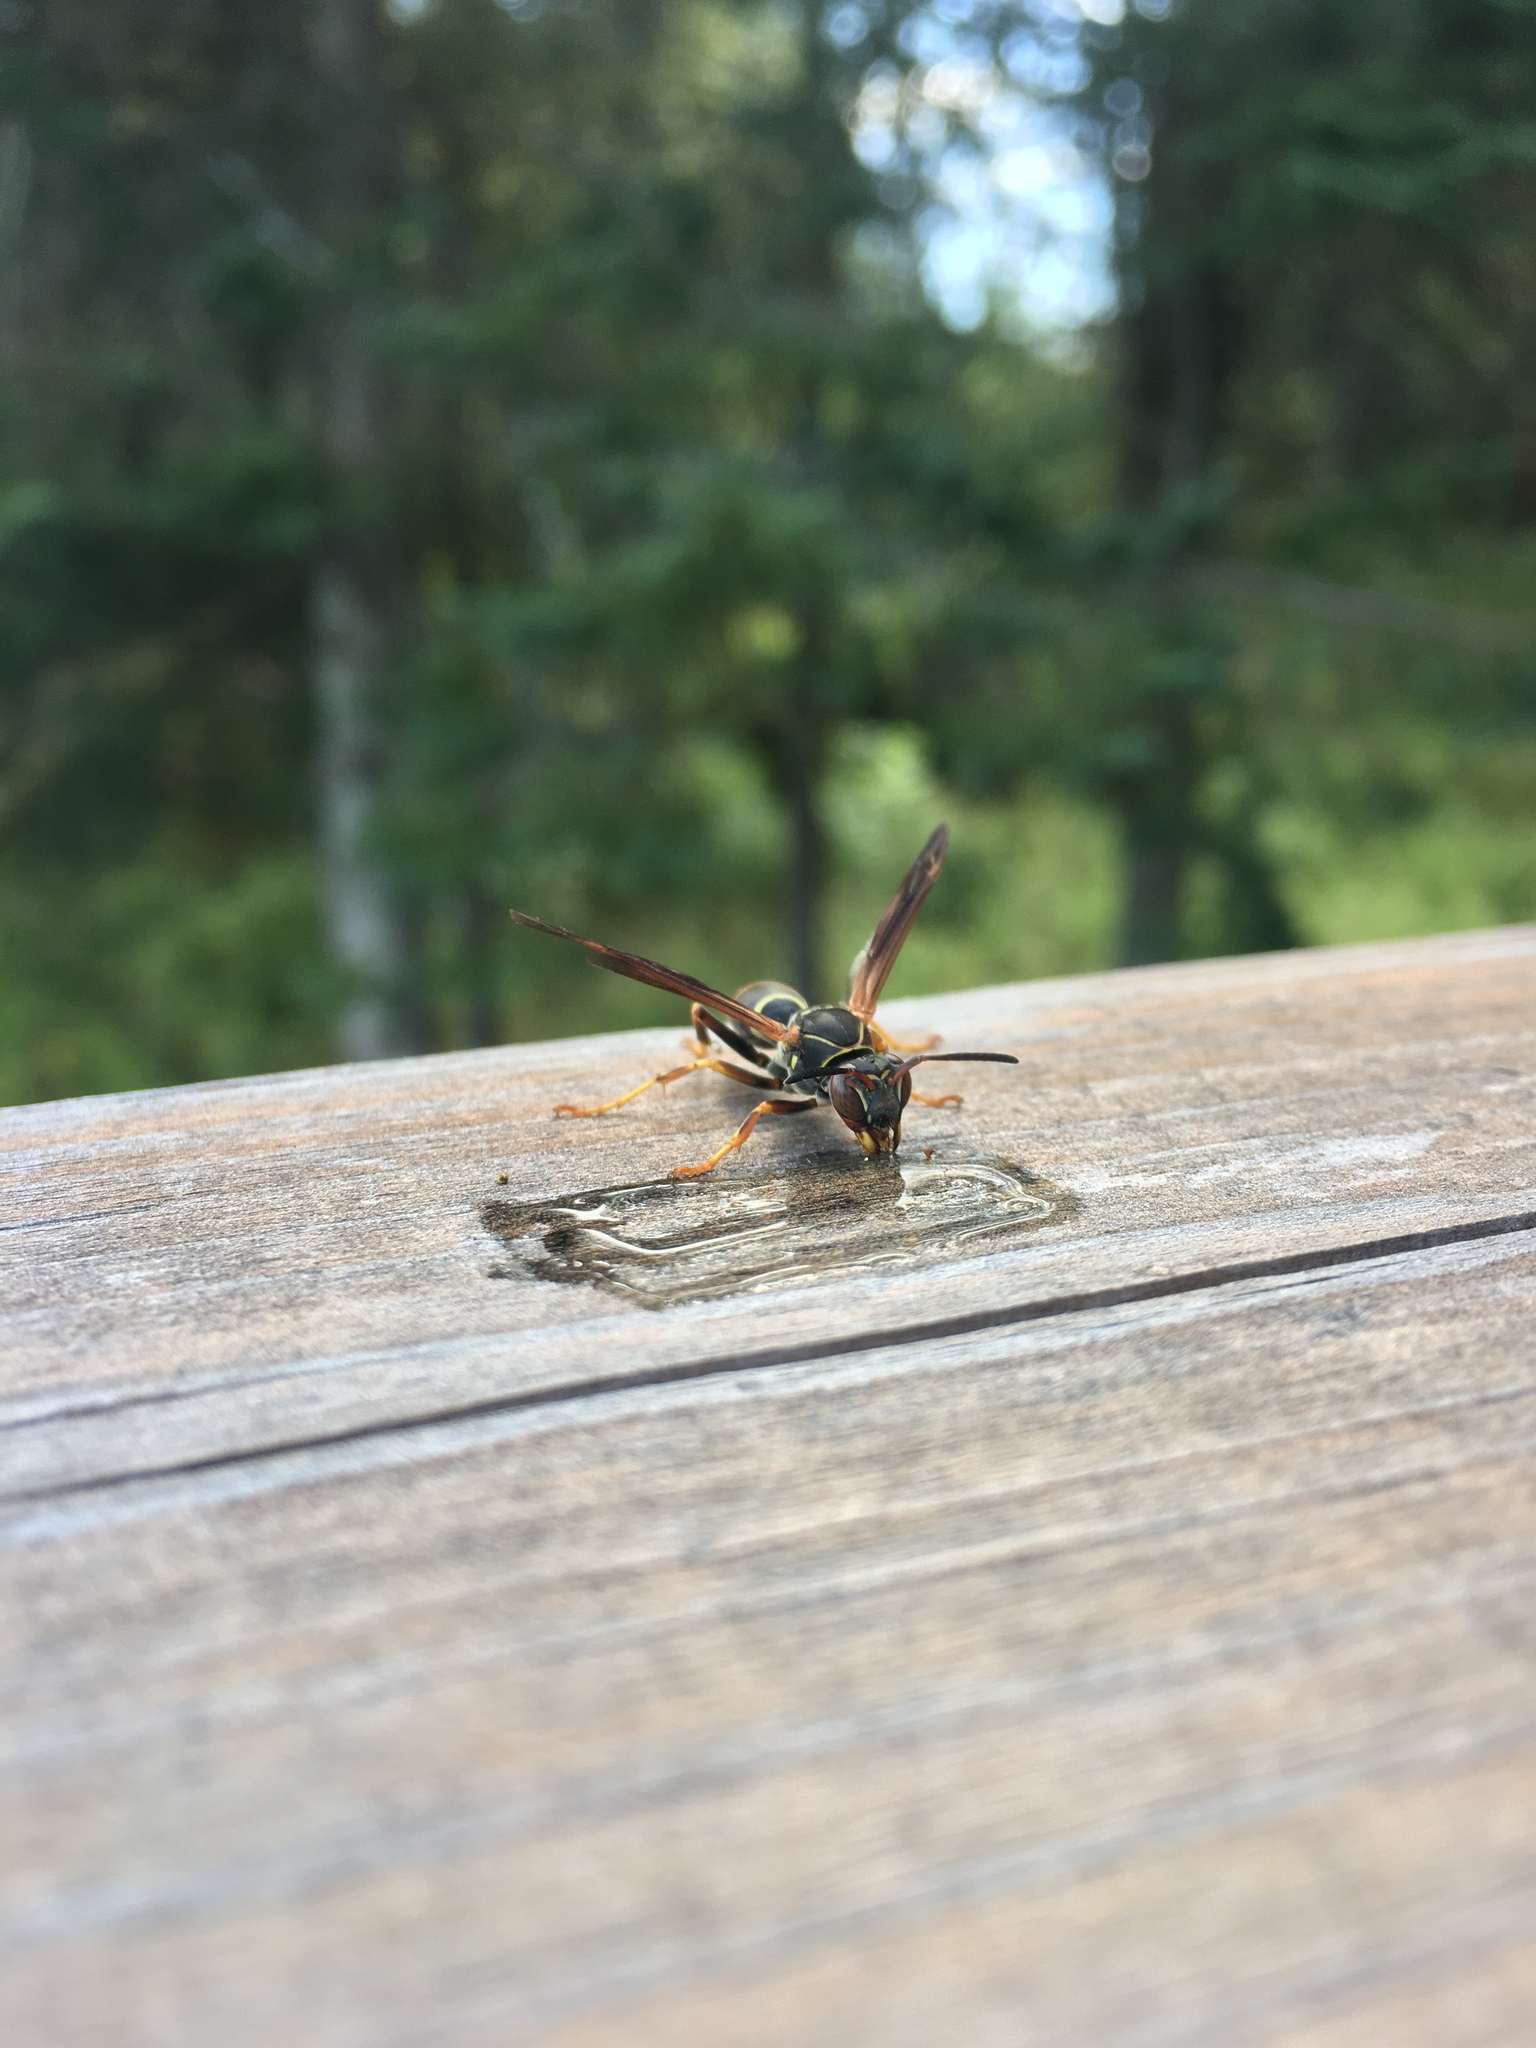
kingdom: Animalia
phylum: Arthropoda
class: Insecta
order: Hymenoptera
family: Eumenidae
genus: Polistes
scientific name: Polistes fuscatus
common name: Dark paper wasp
